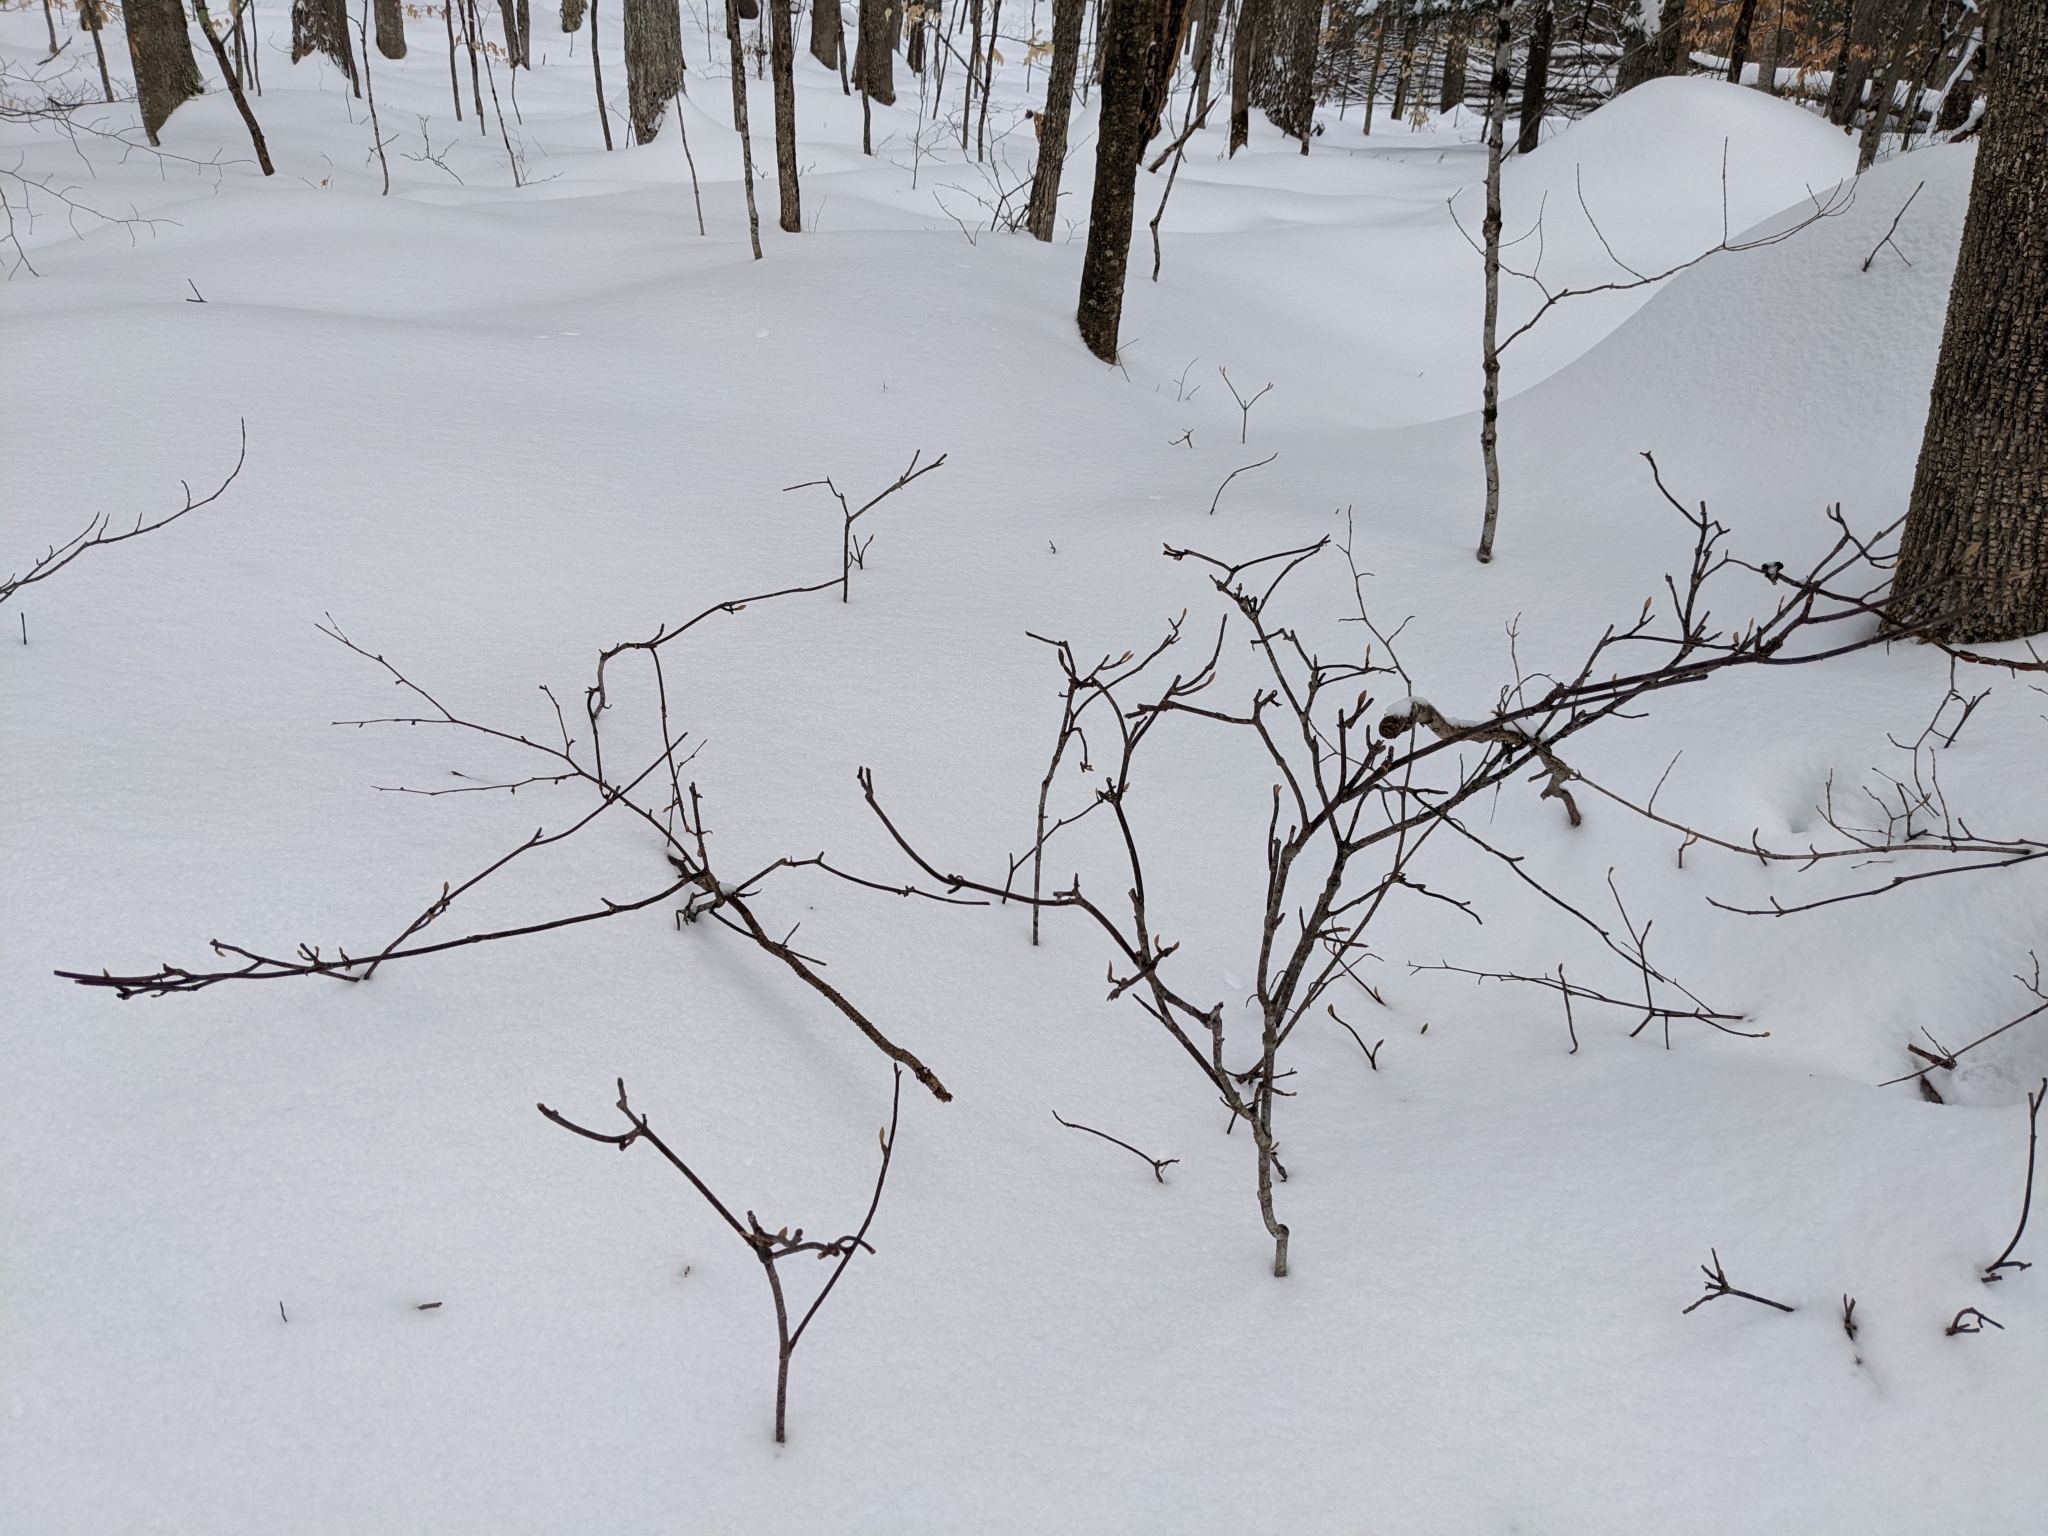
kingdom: Plantae
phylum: Tracheophyta
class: Magnoliopsida
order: Dipsacales
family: Viburnaceae
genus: Viburnum
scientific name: Viburnum lantanoides
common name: Hobblebush
